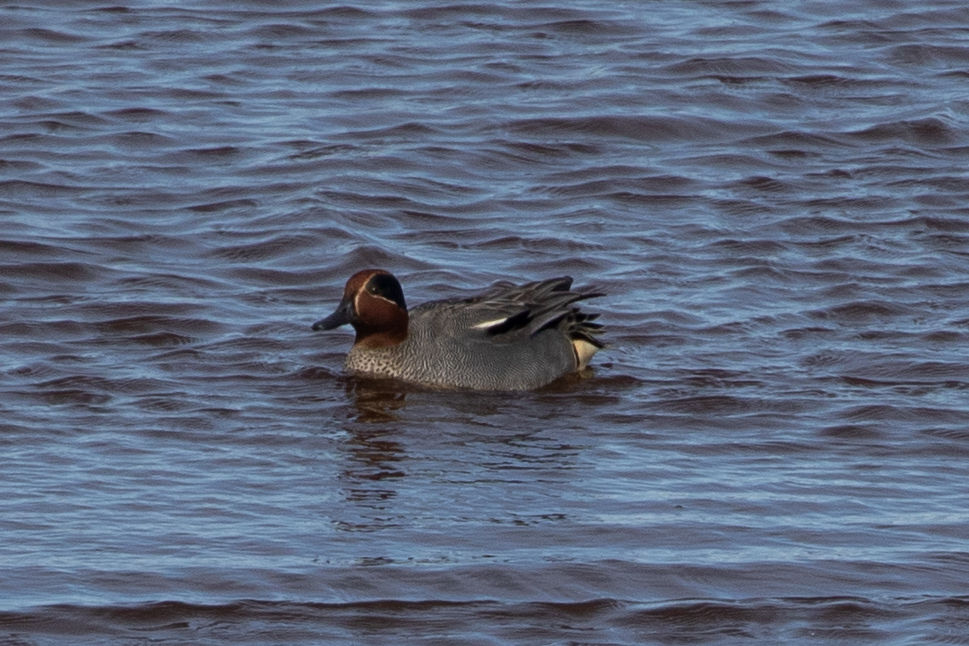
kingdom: Animalia
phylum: Chordata
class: Aves
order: Anseriformes
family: Anatidae
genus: Anas
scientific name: Anas crecca
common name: Eurasian teal
